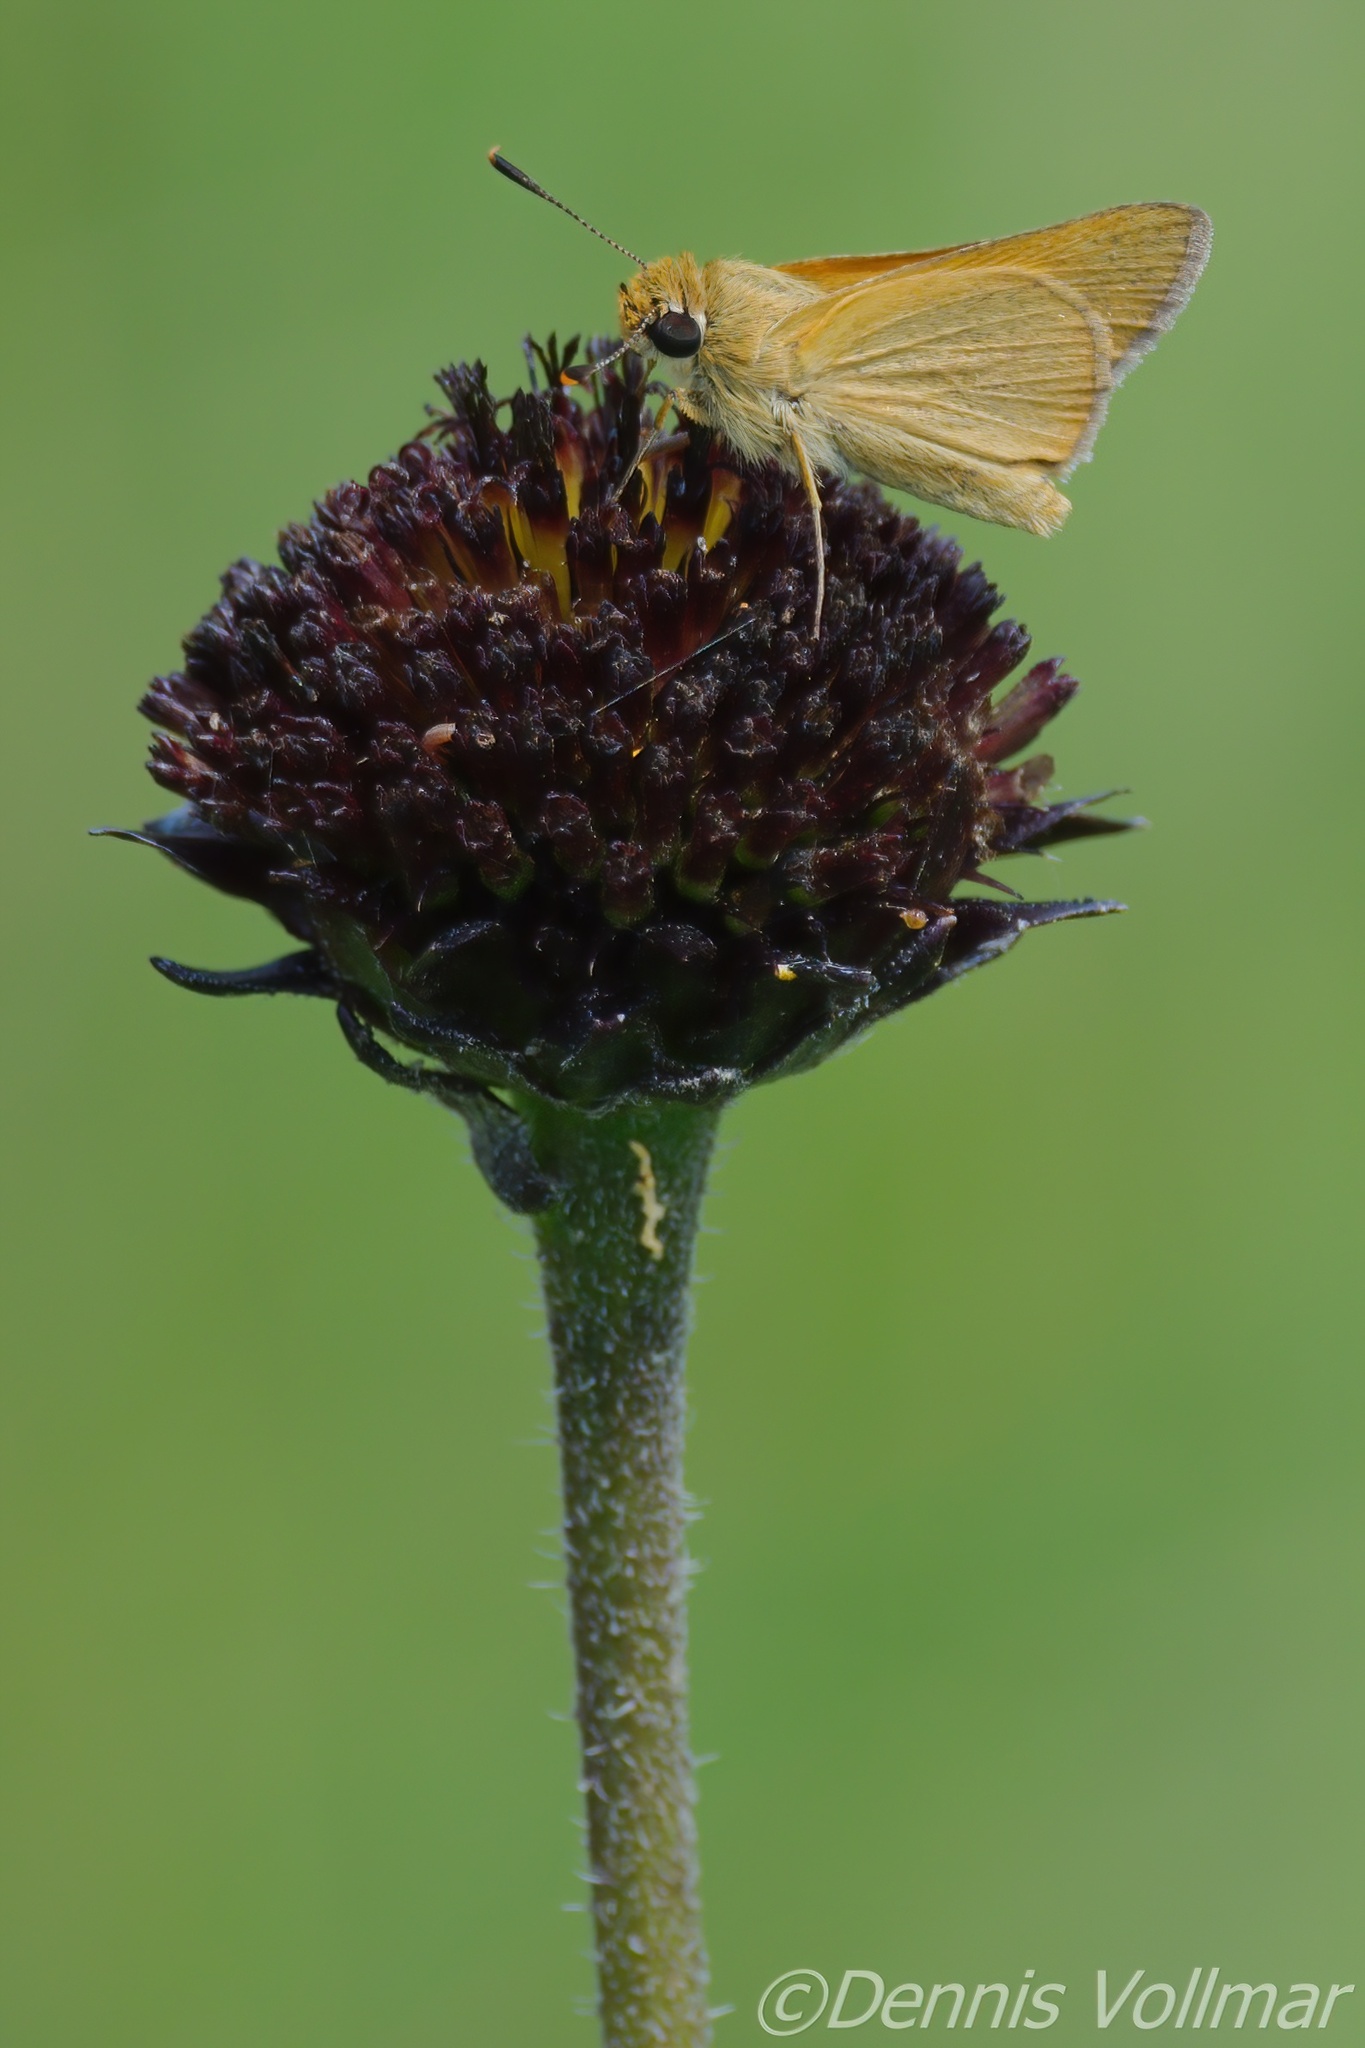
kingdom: Animalia
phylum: Arthropoda
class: Insecta
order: Lepidoptera
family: Hesperiidae
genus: Atrytone
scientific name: Atrytone arogos
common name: Arogos skipper
